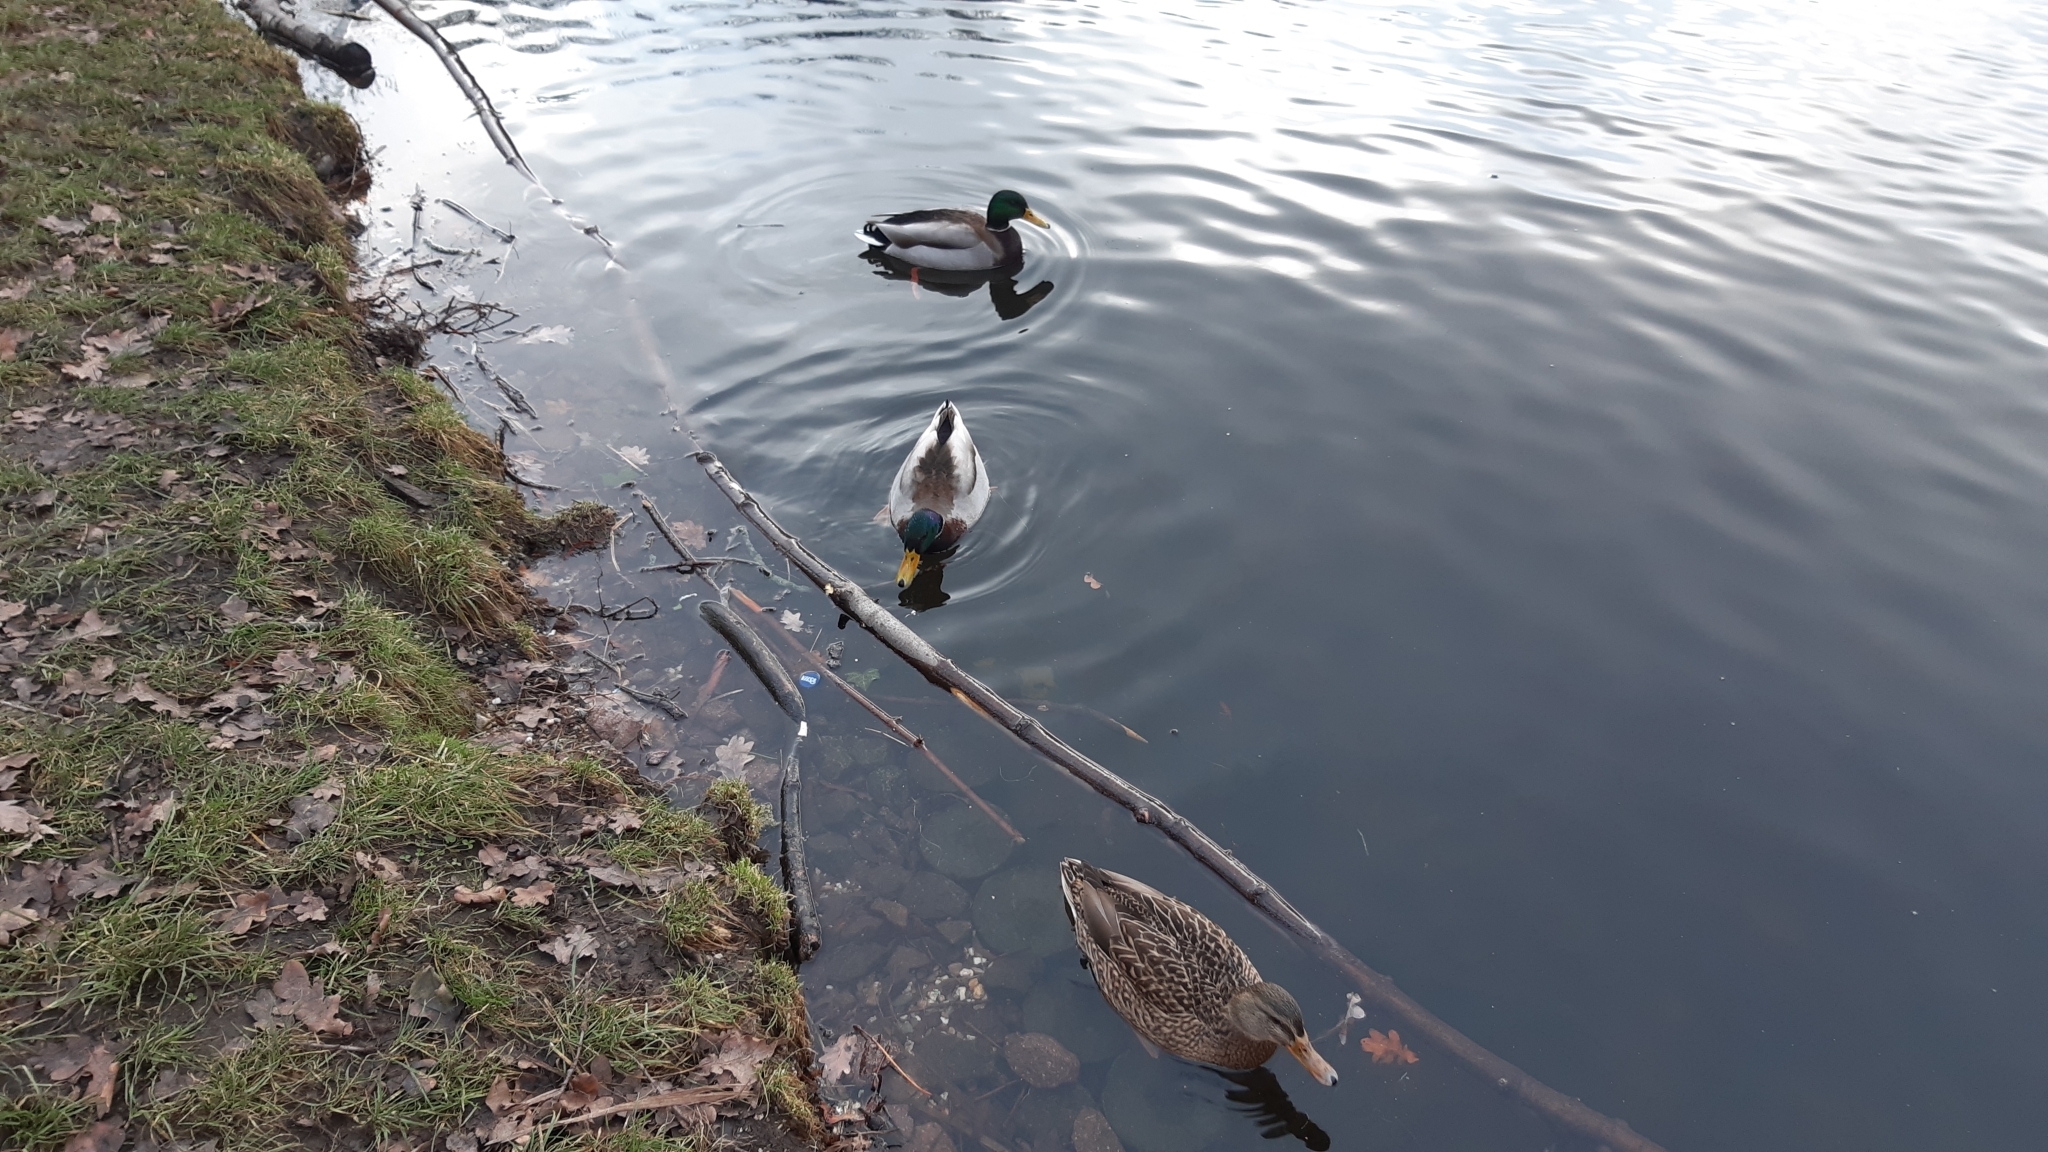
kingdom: Animalia
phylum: Chordata
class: Aves
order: Anseriformes
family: Anatidae
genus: Anas
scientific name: Anas platyrhynchos
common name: Mallard
